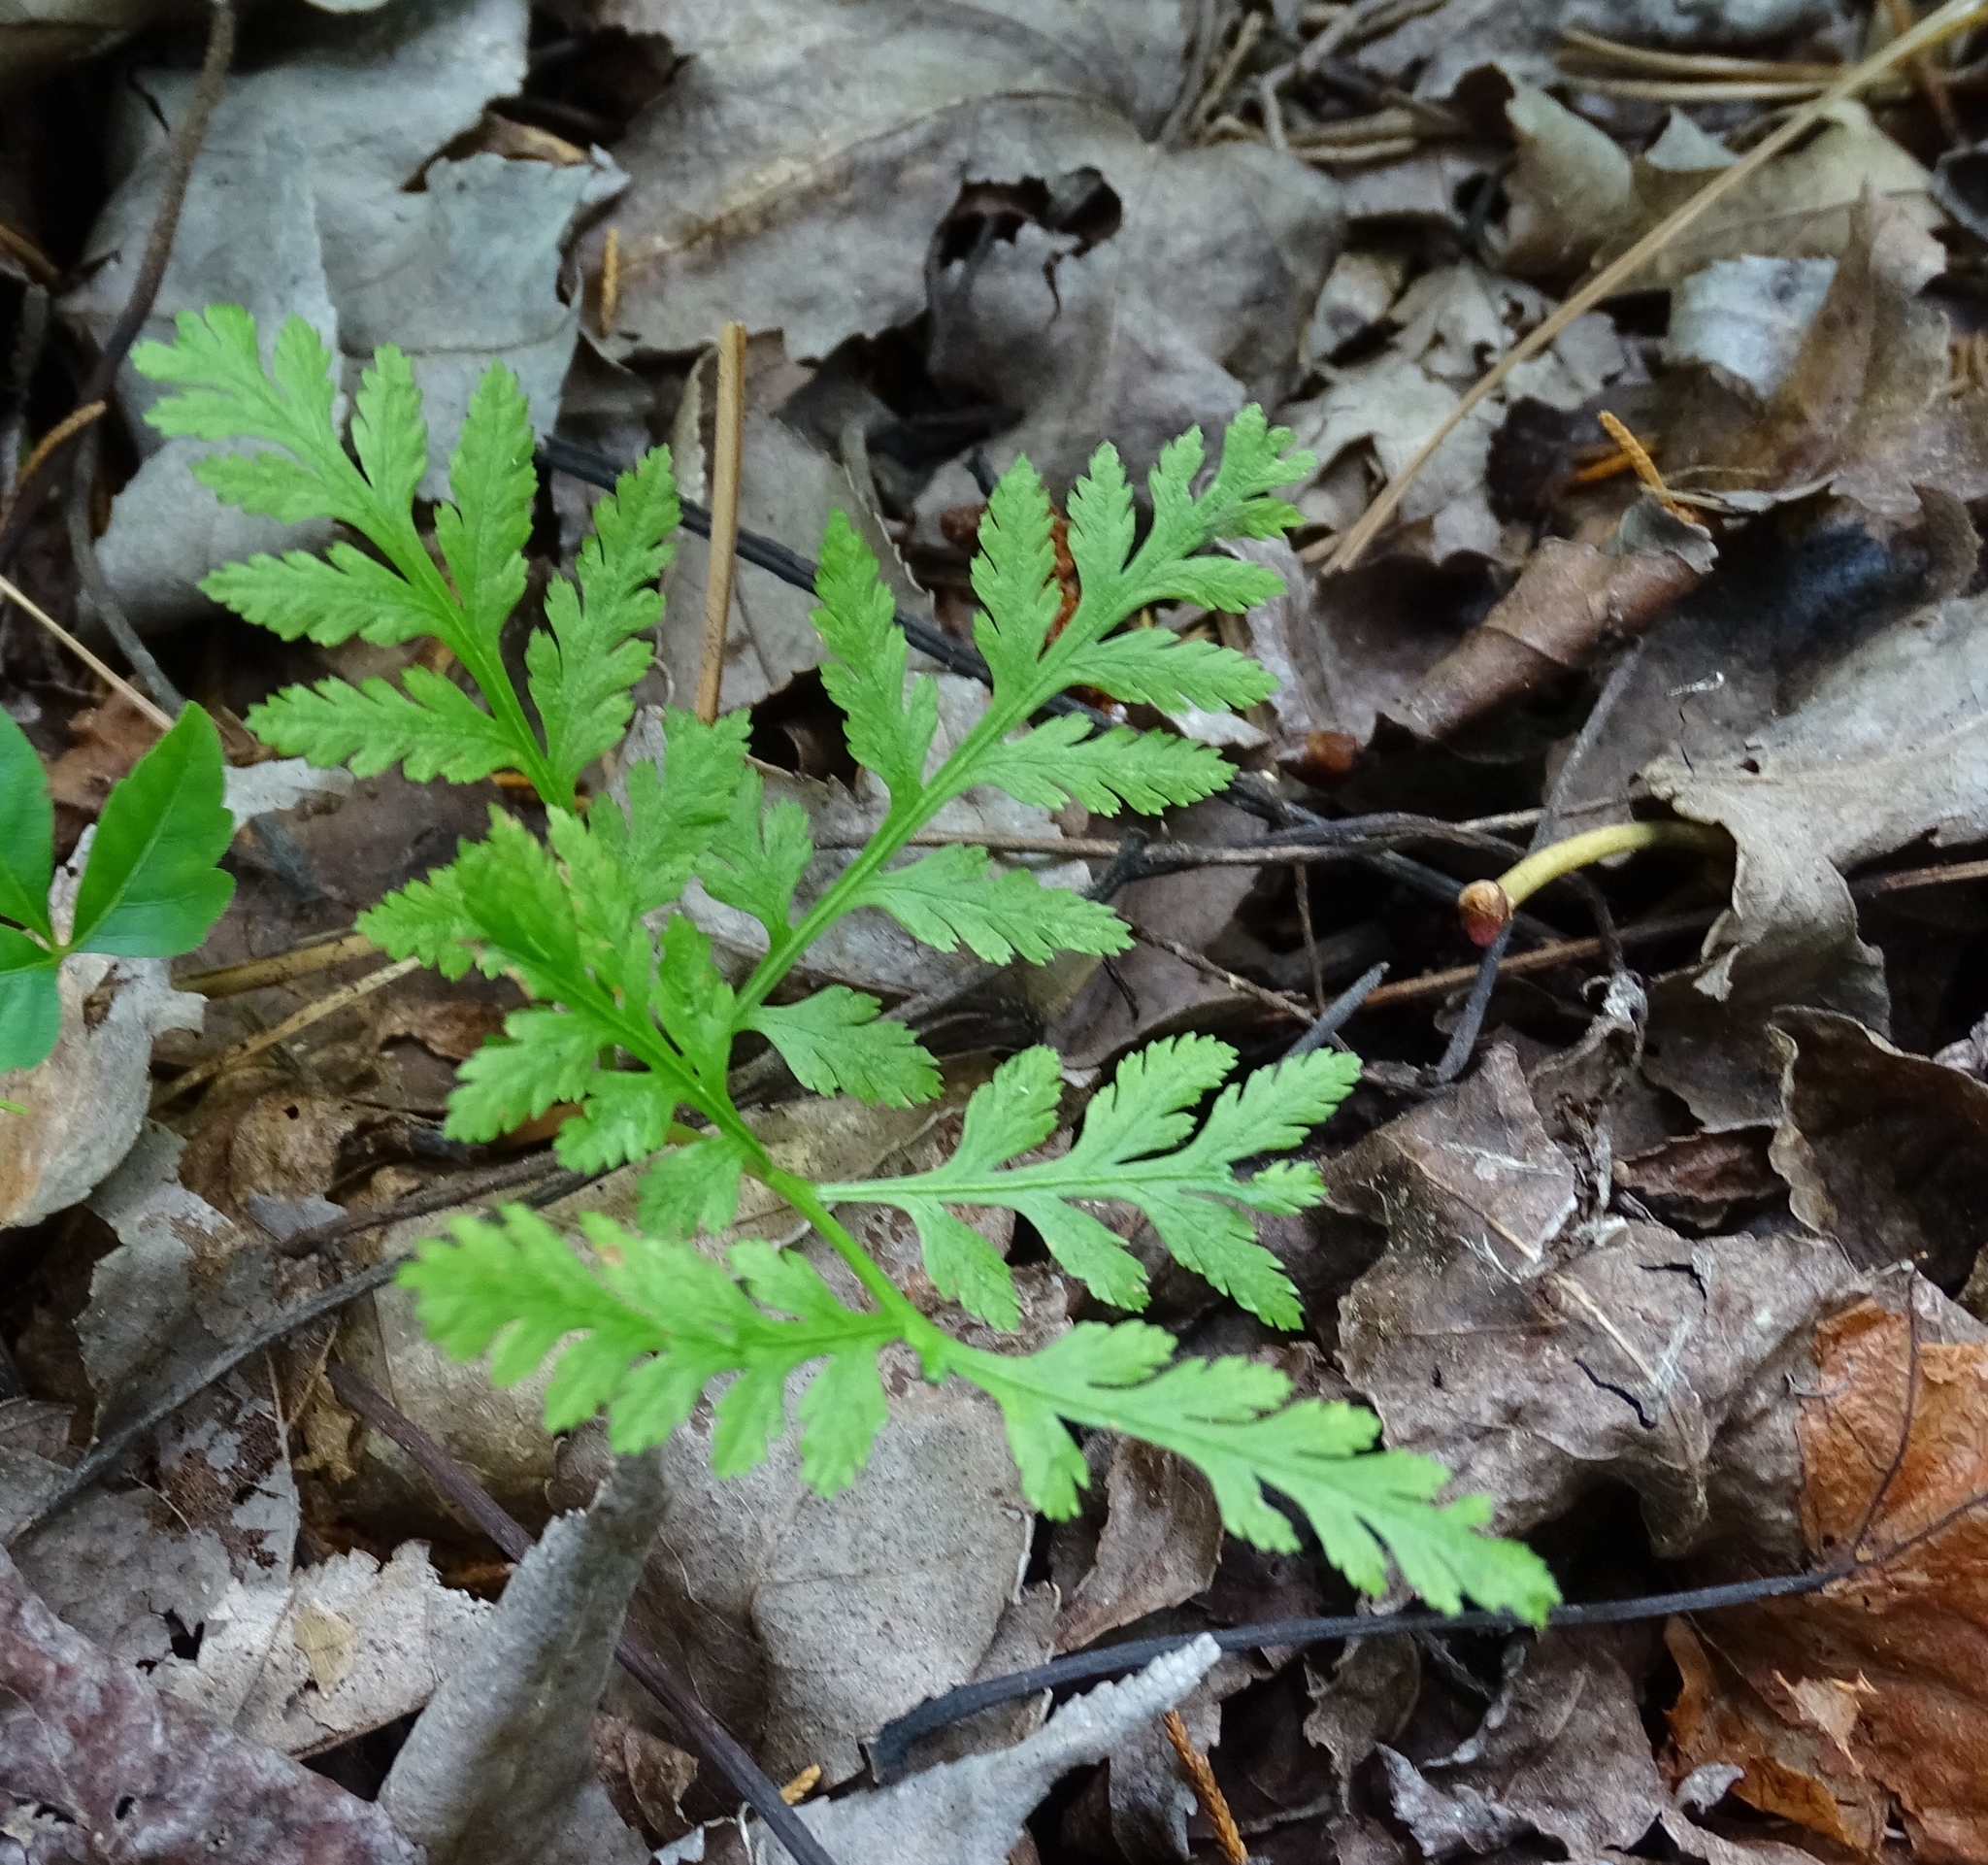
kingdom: Plantae
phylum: Tracheophyta
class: Polypodiopsida
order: Ophioglossales
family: Ophioglossaceae
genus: Botrypus
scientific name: Botrypus virginianus
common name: Common grapefern
